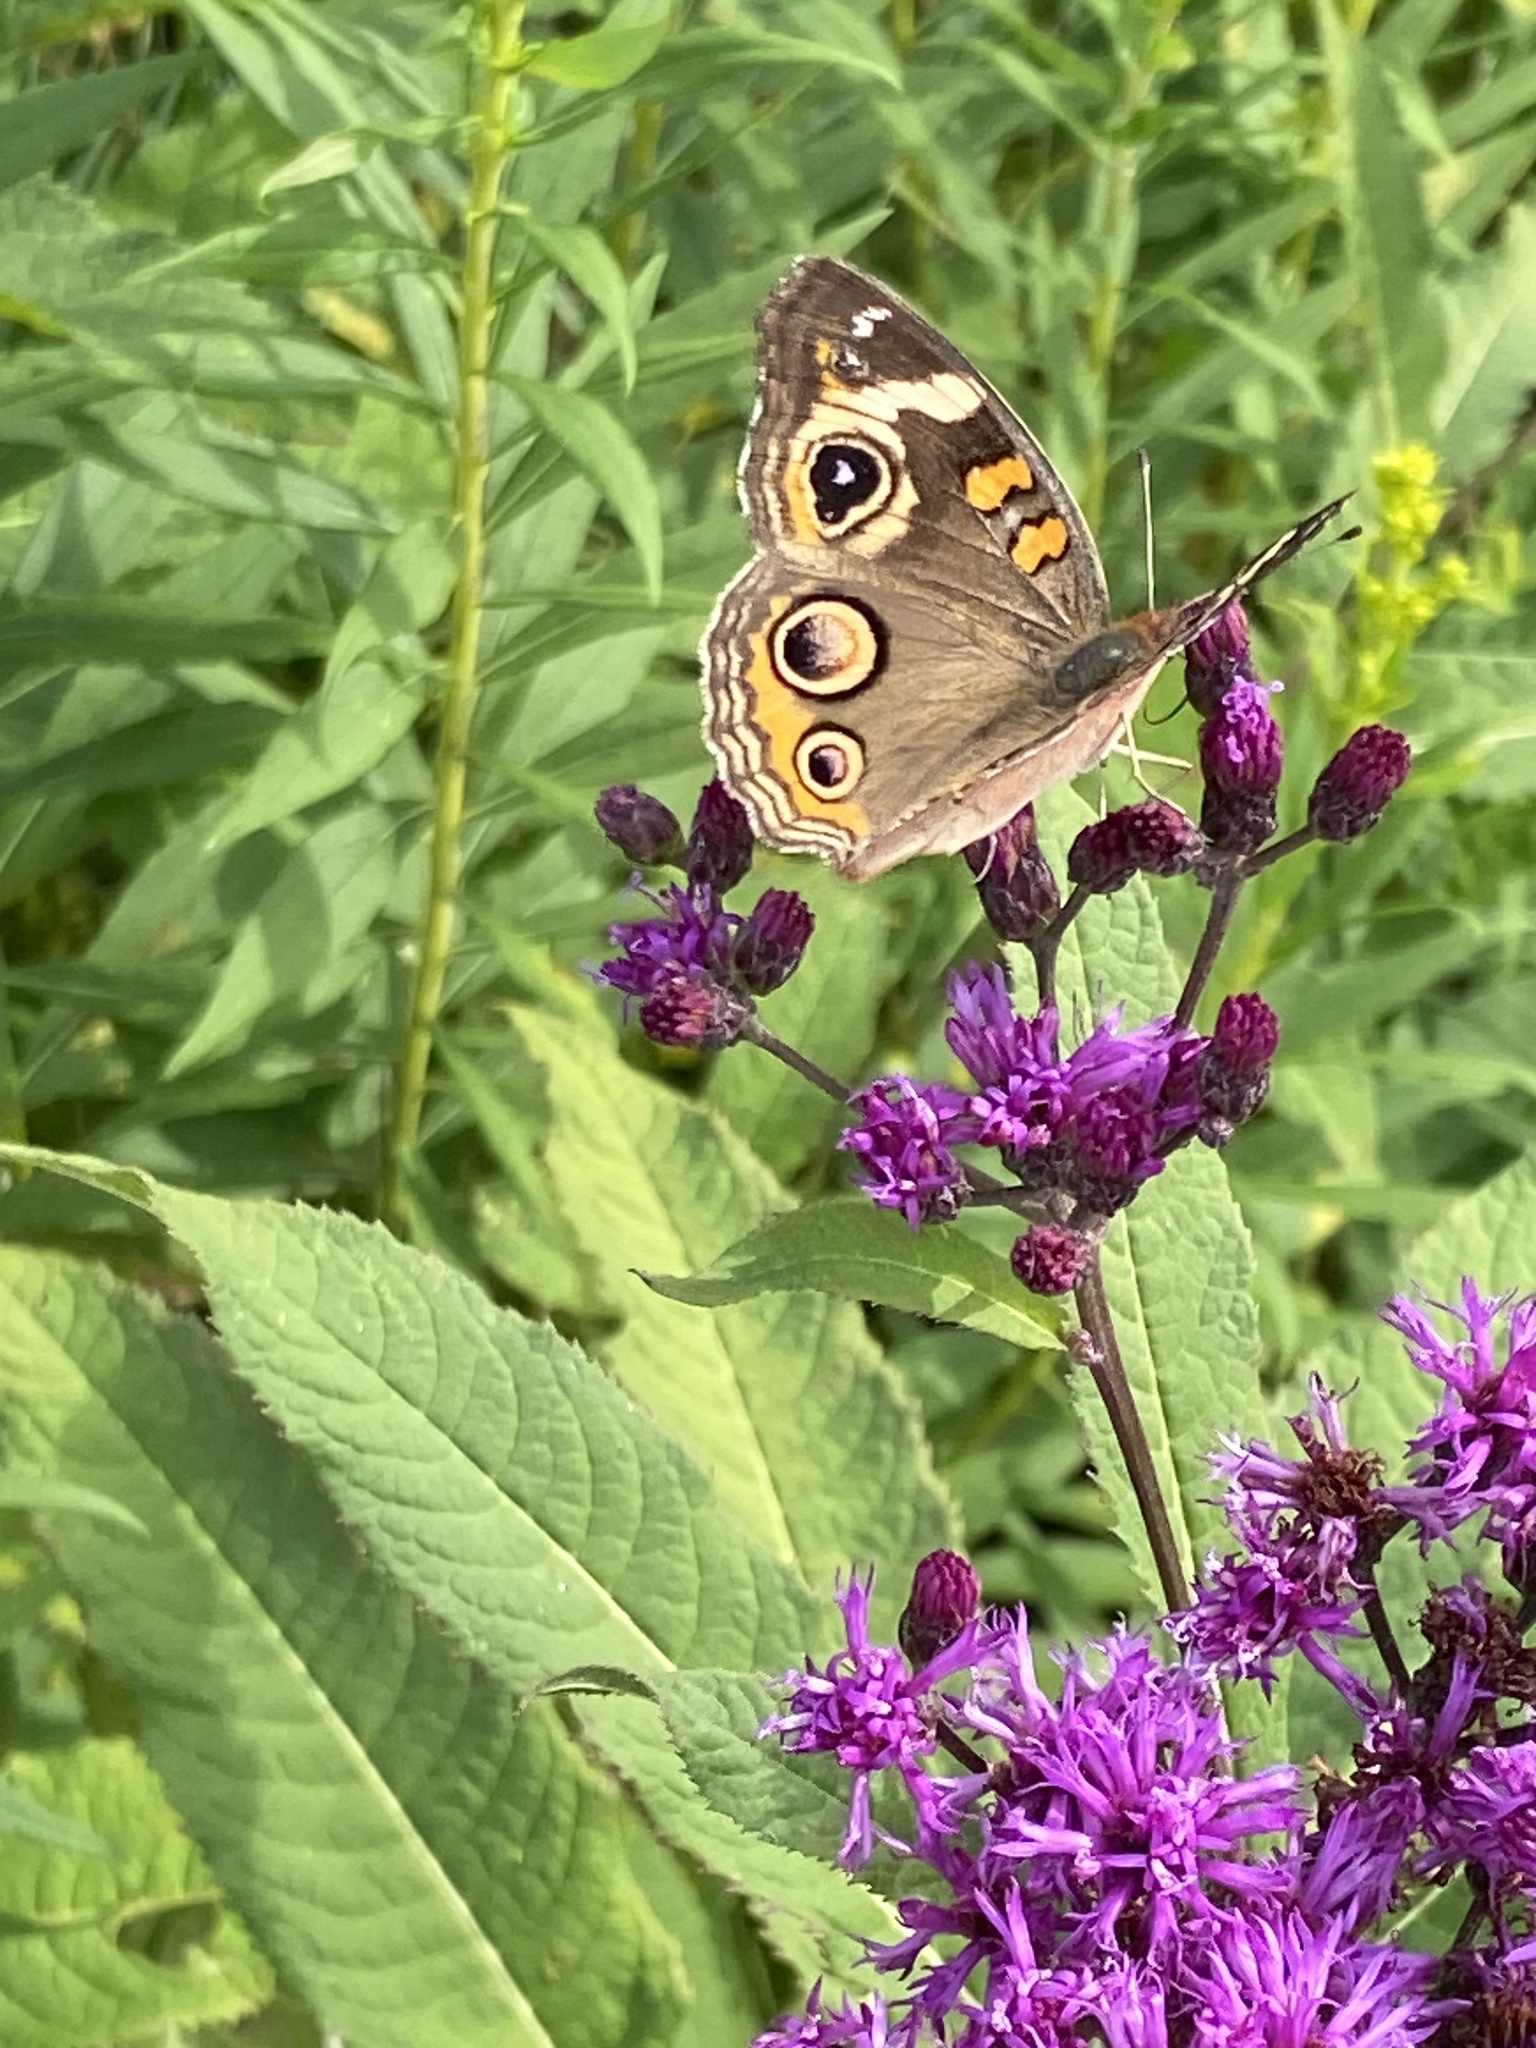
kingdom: Animalia
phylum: Arthropoda
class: Insecta
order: Lepidoptera
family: Nymphalidae
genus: Junonia
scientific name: Junonia coenia
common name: Common buckeye
